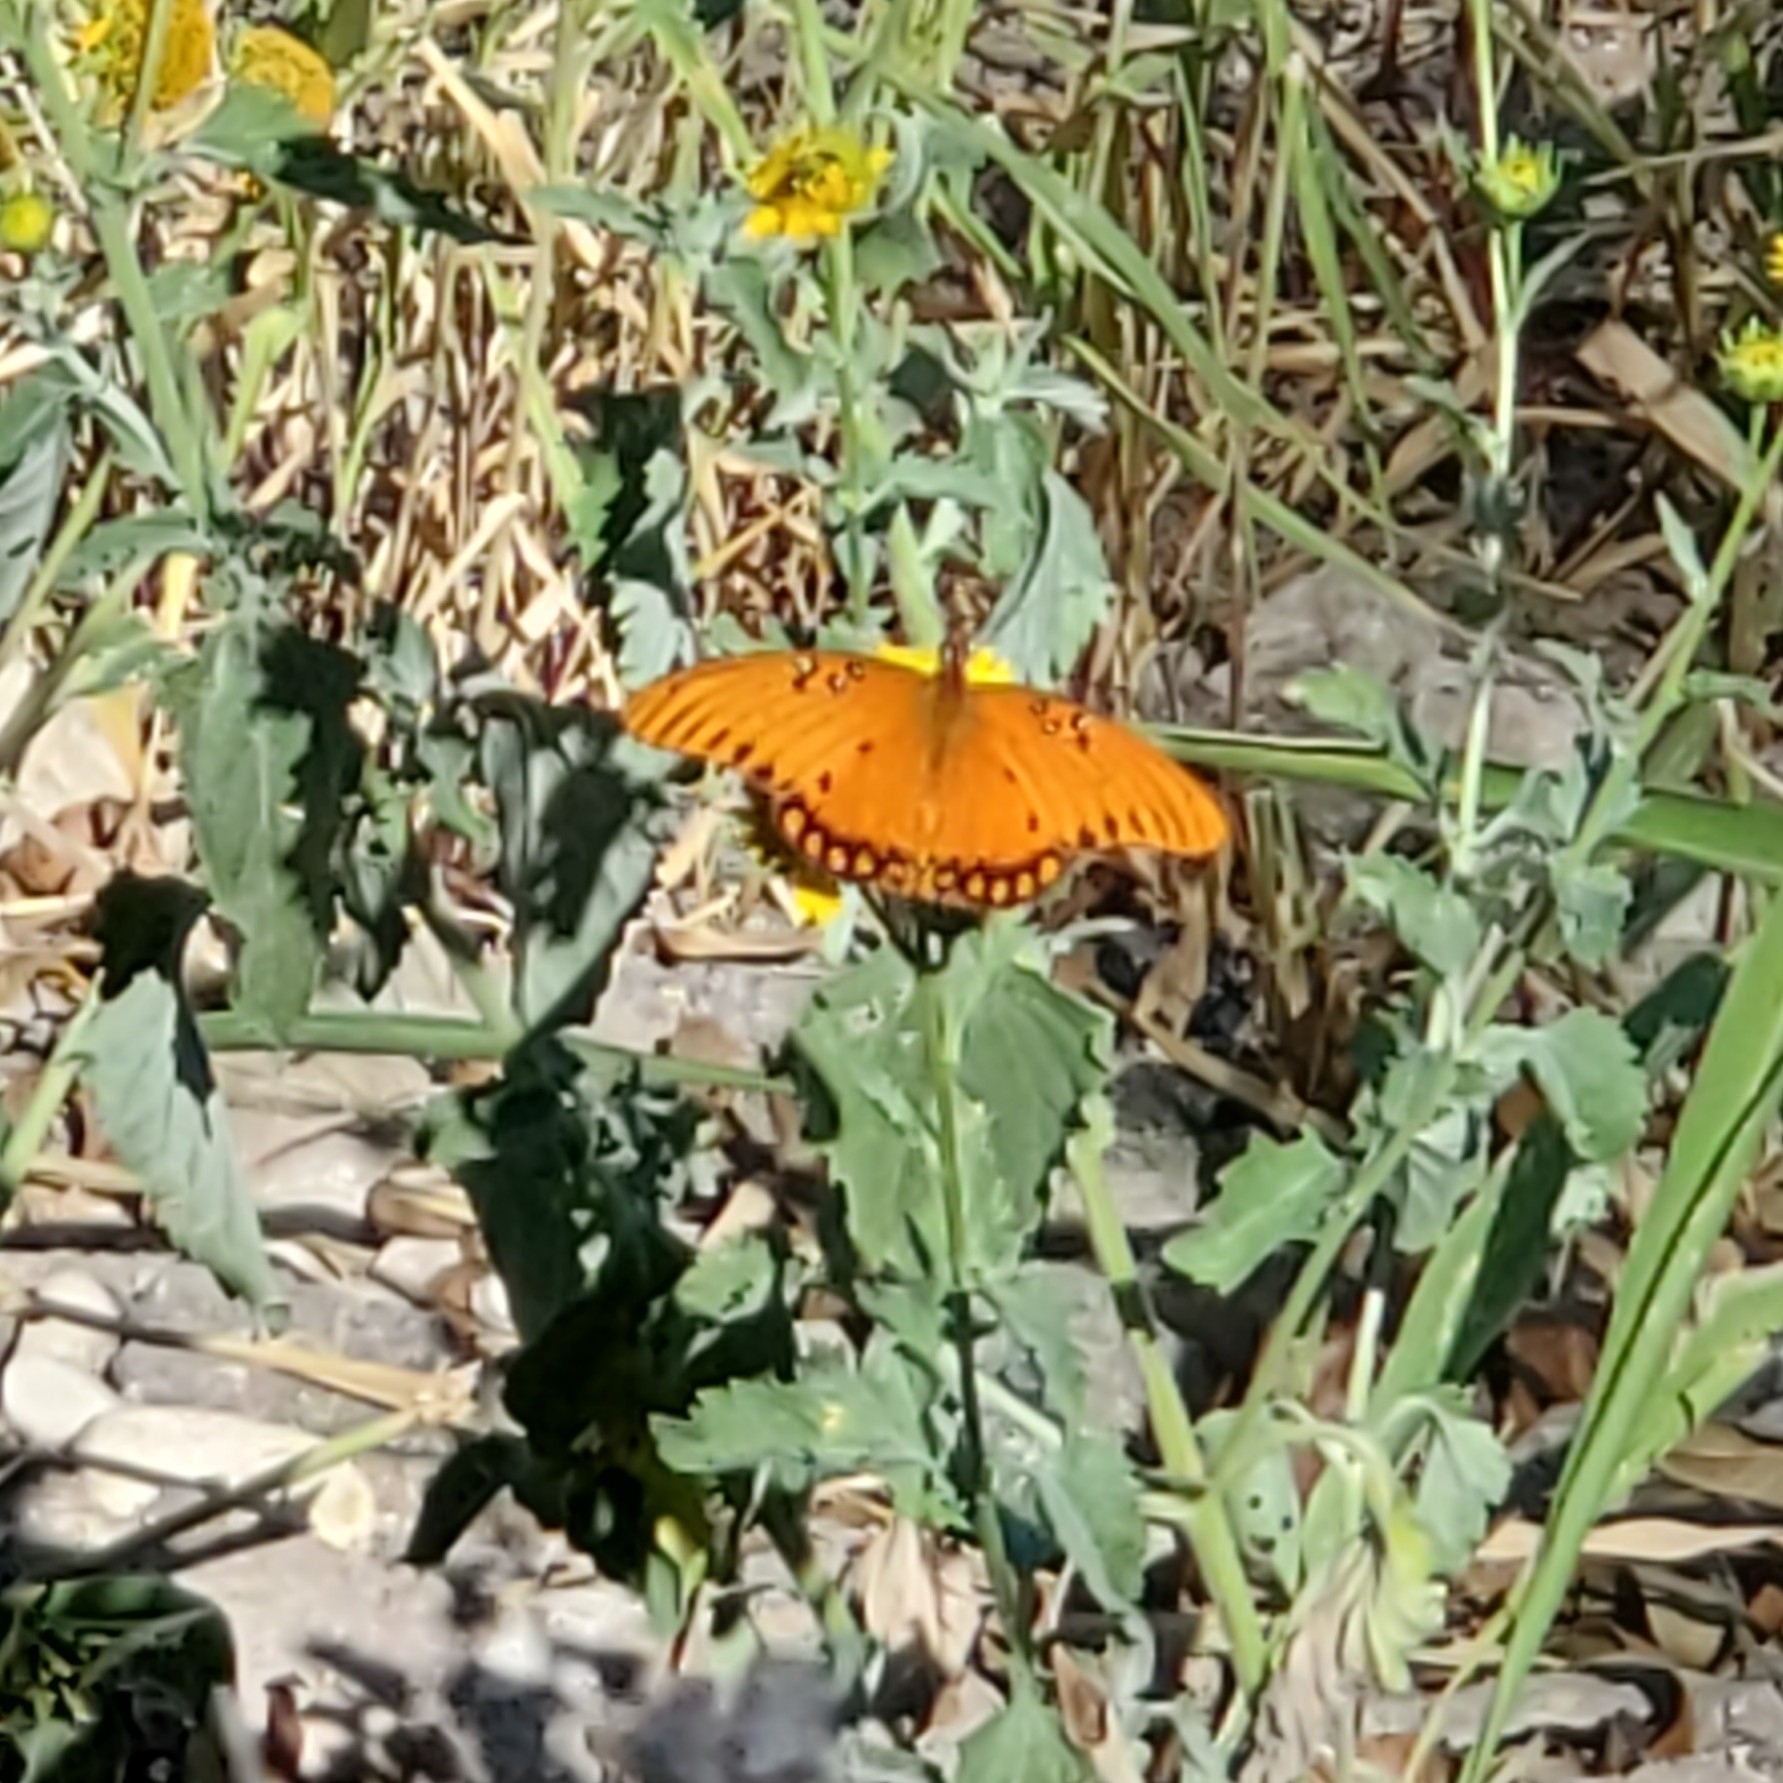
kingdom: Animalia
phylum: Arthropoda
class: Insecta
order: Lepidoptera
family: Nymphalidae
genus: Dione
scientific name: Dione vanillae
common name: Gulf fritillary
